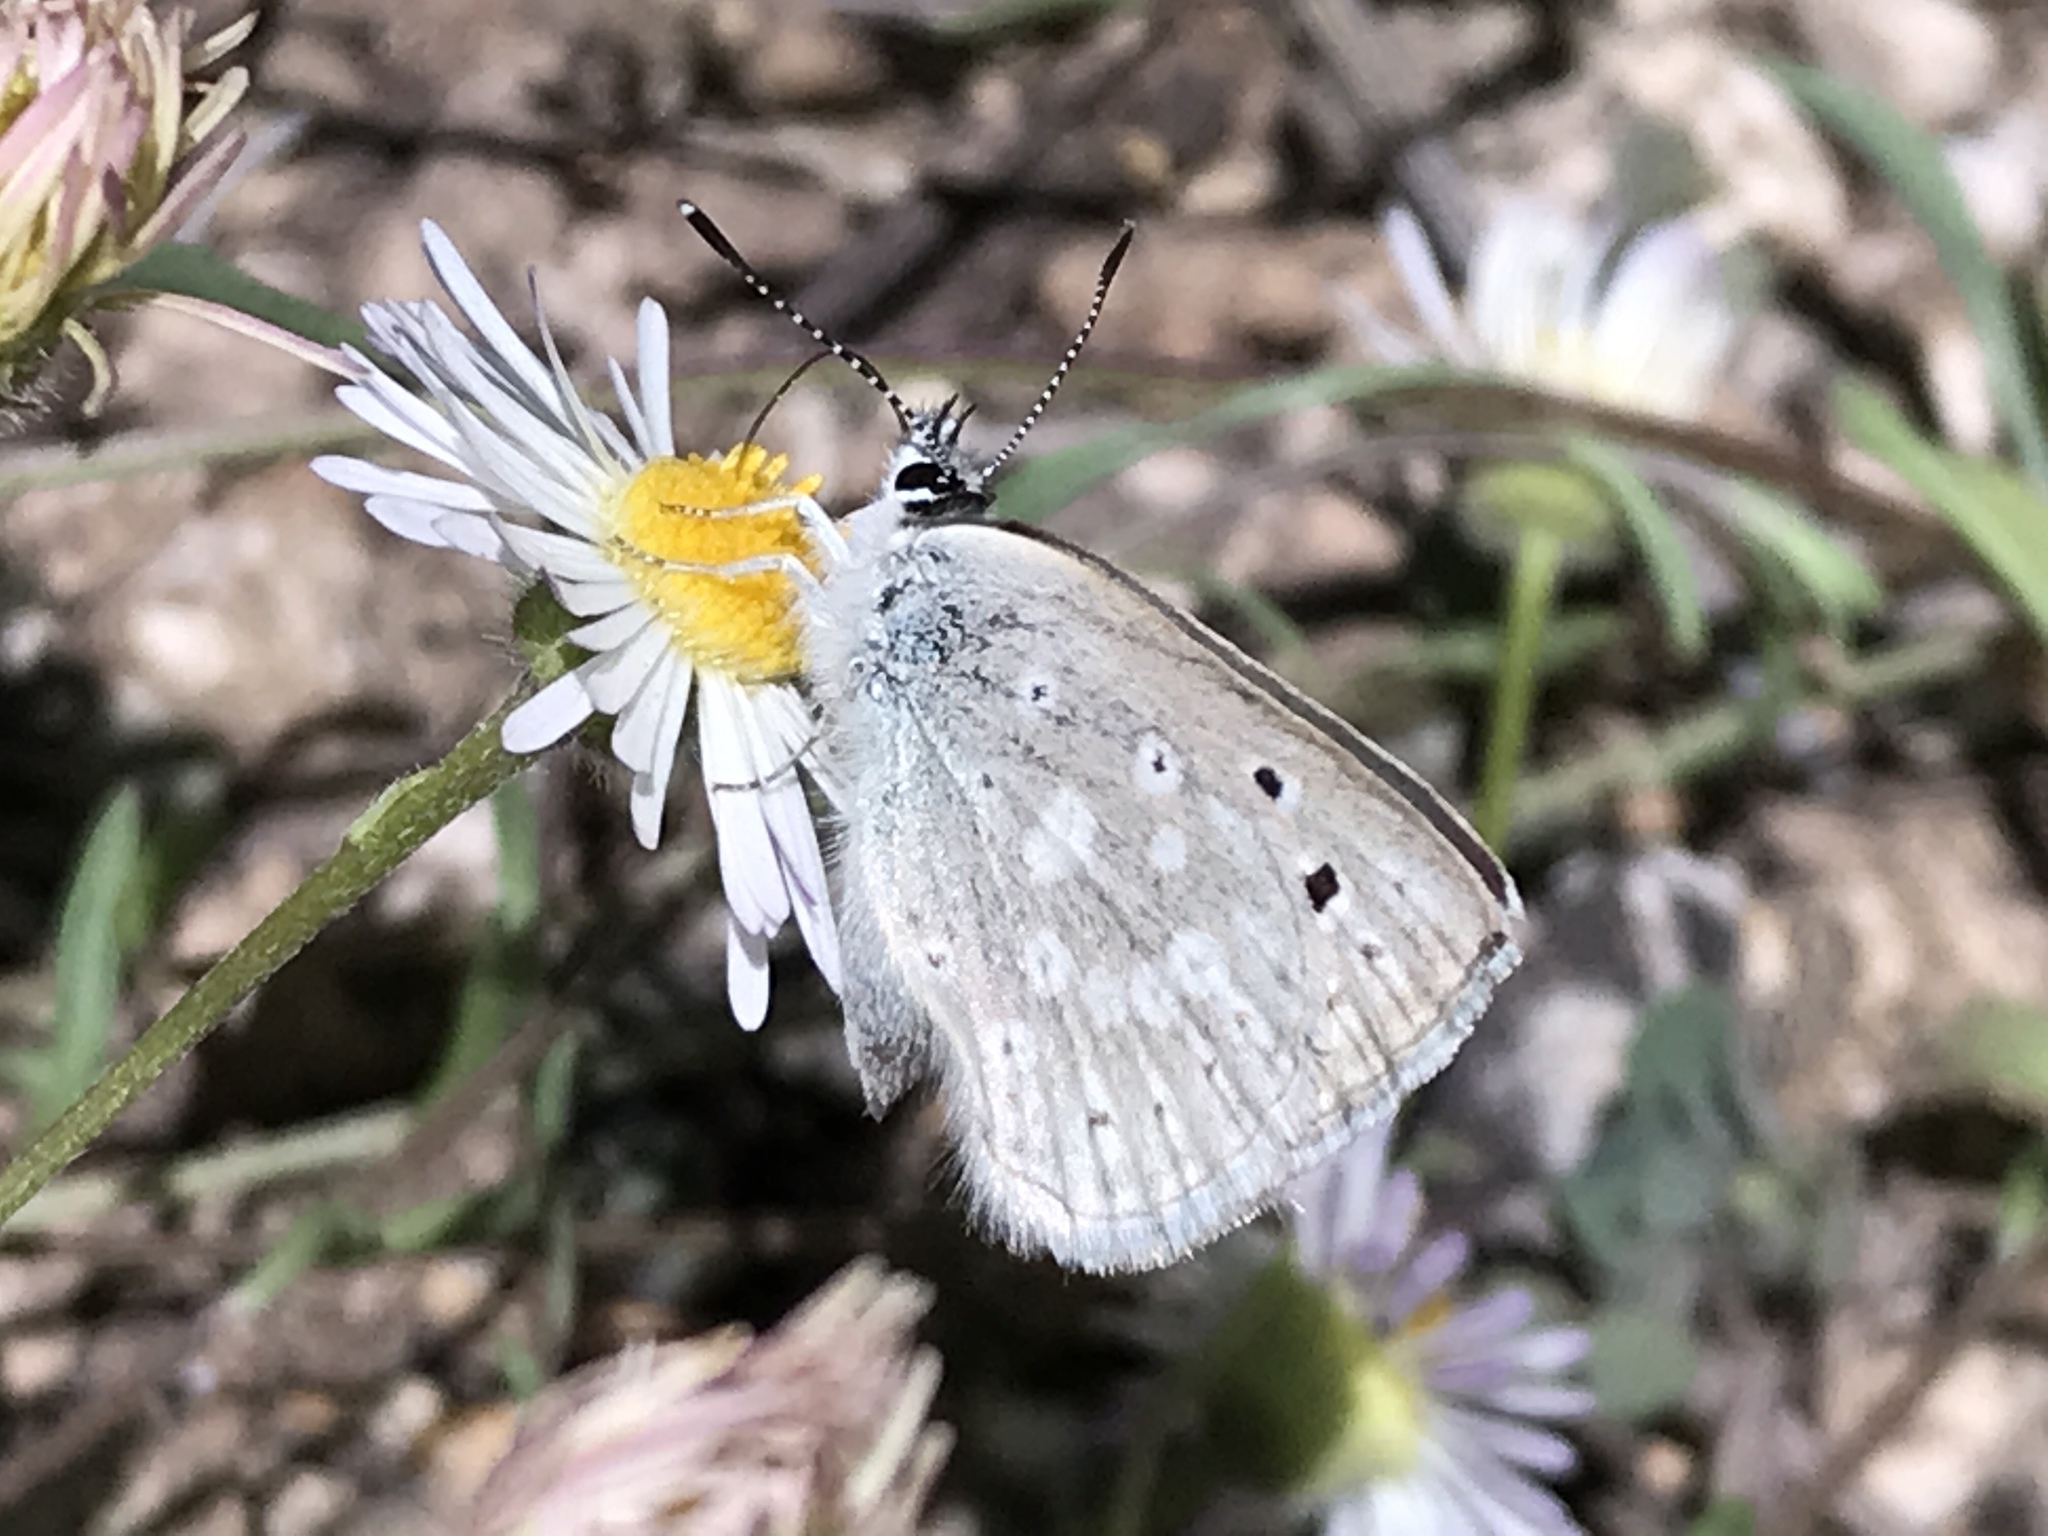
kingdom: Animalia
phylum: Arthropoda
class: Insecta
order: Lepidoptera
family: Lycaenidae
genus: Icaricia
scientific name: Icaricia icarioides
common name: Boisduval's blue
